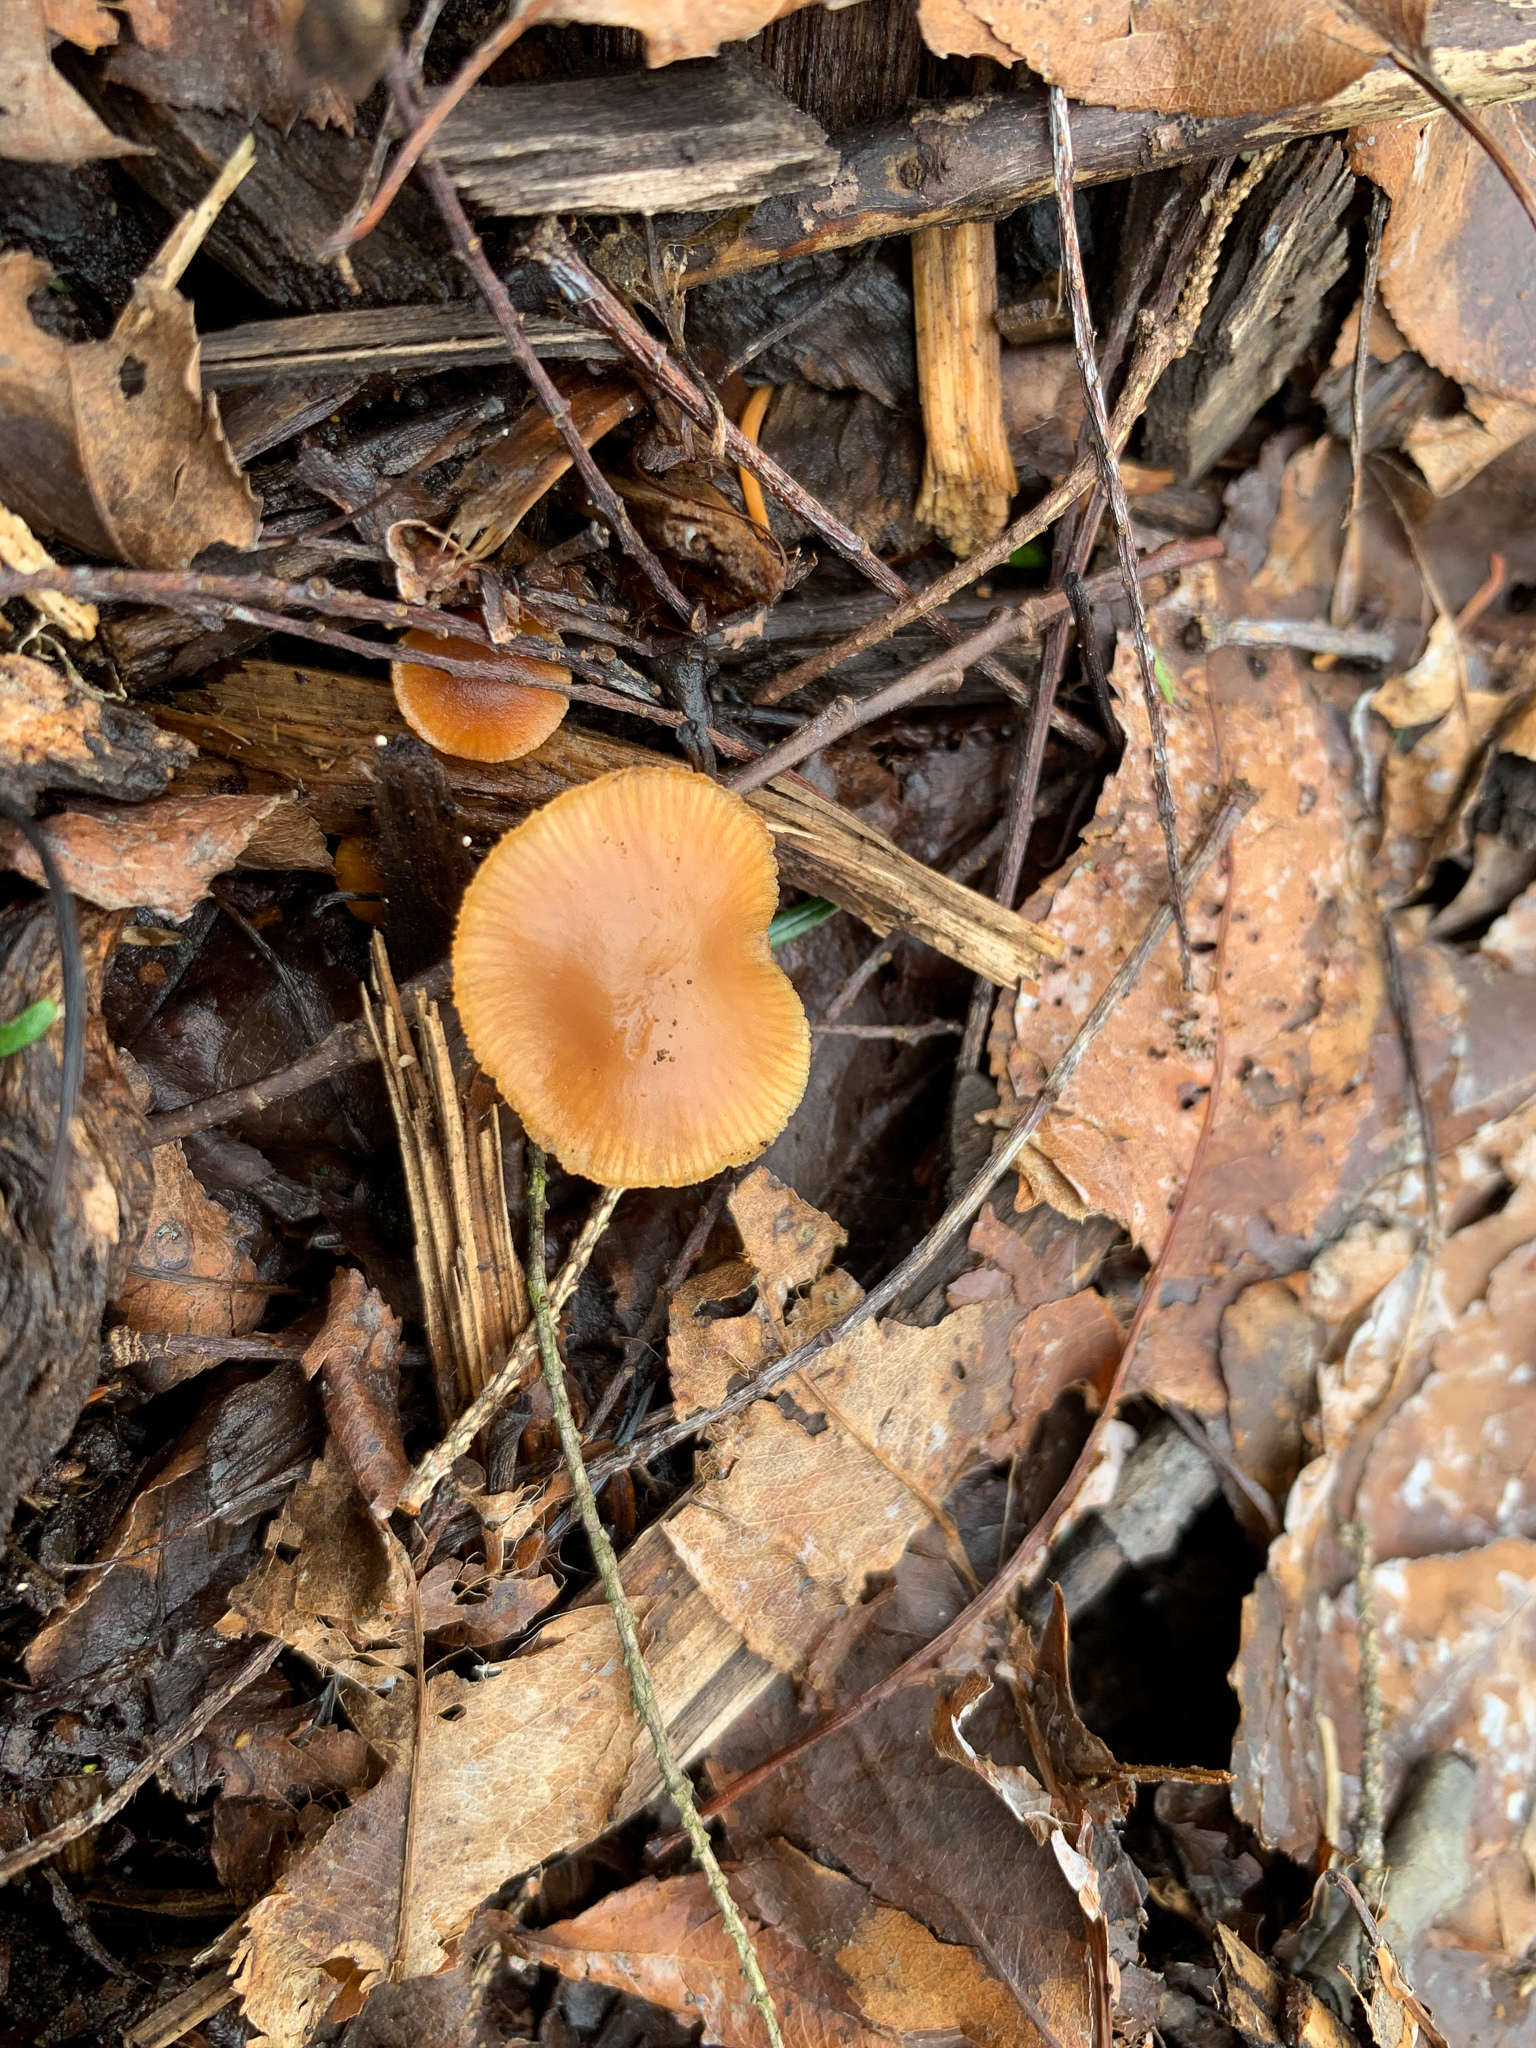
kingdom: Fungi
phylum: Basidiomycota
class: Agaricomycetes
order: Agaricales
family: Tubariaceae
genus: Tubaria
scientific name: Tubaria furfuracea
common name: Scurfy twiglet
